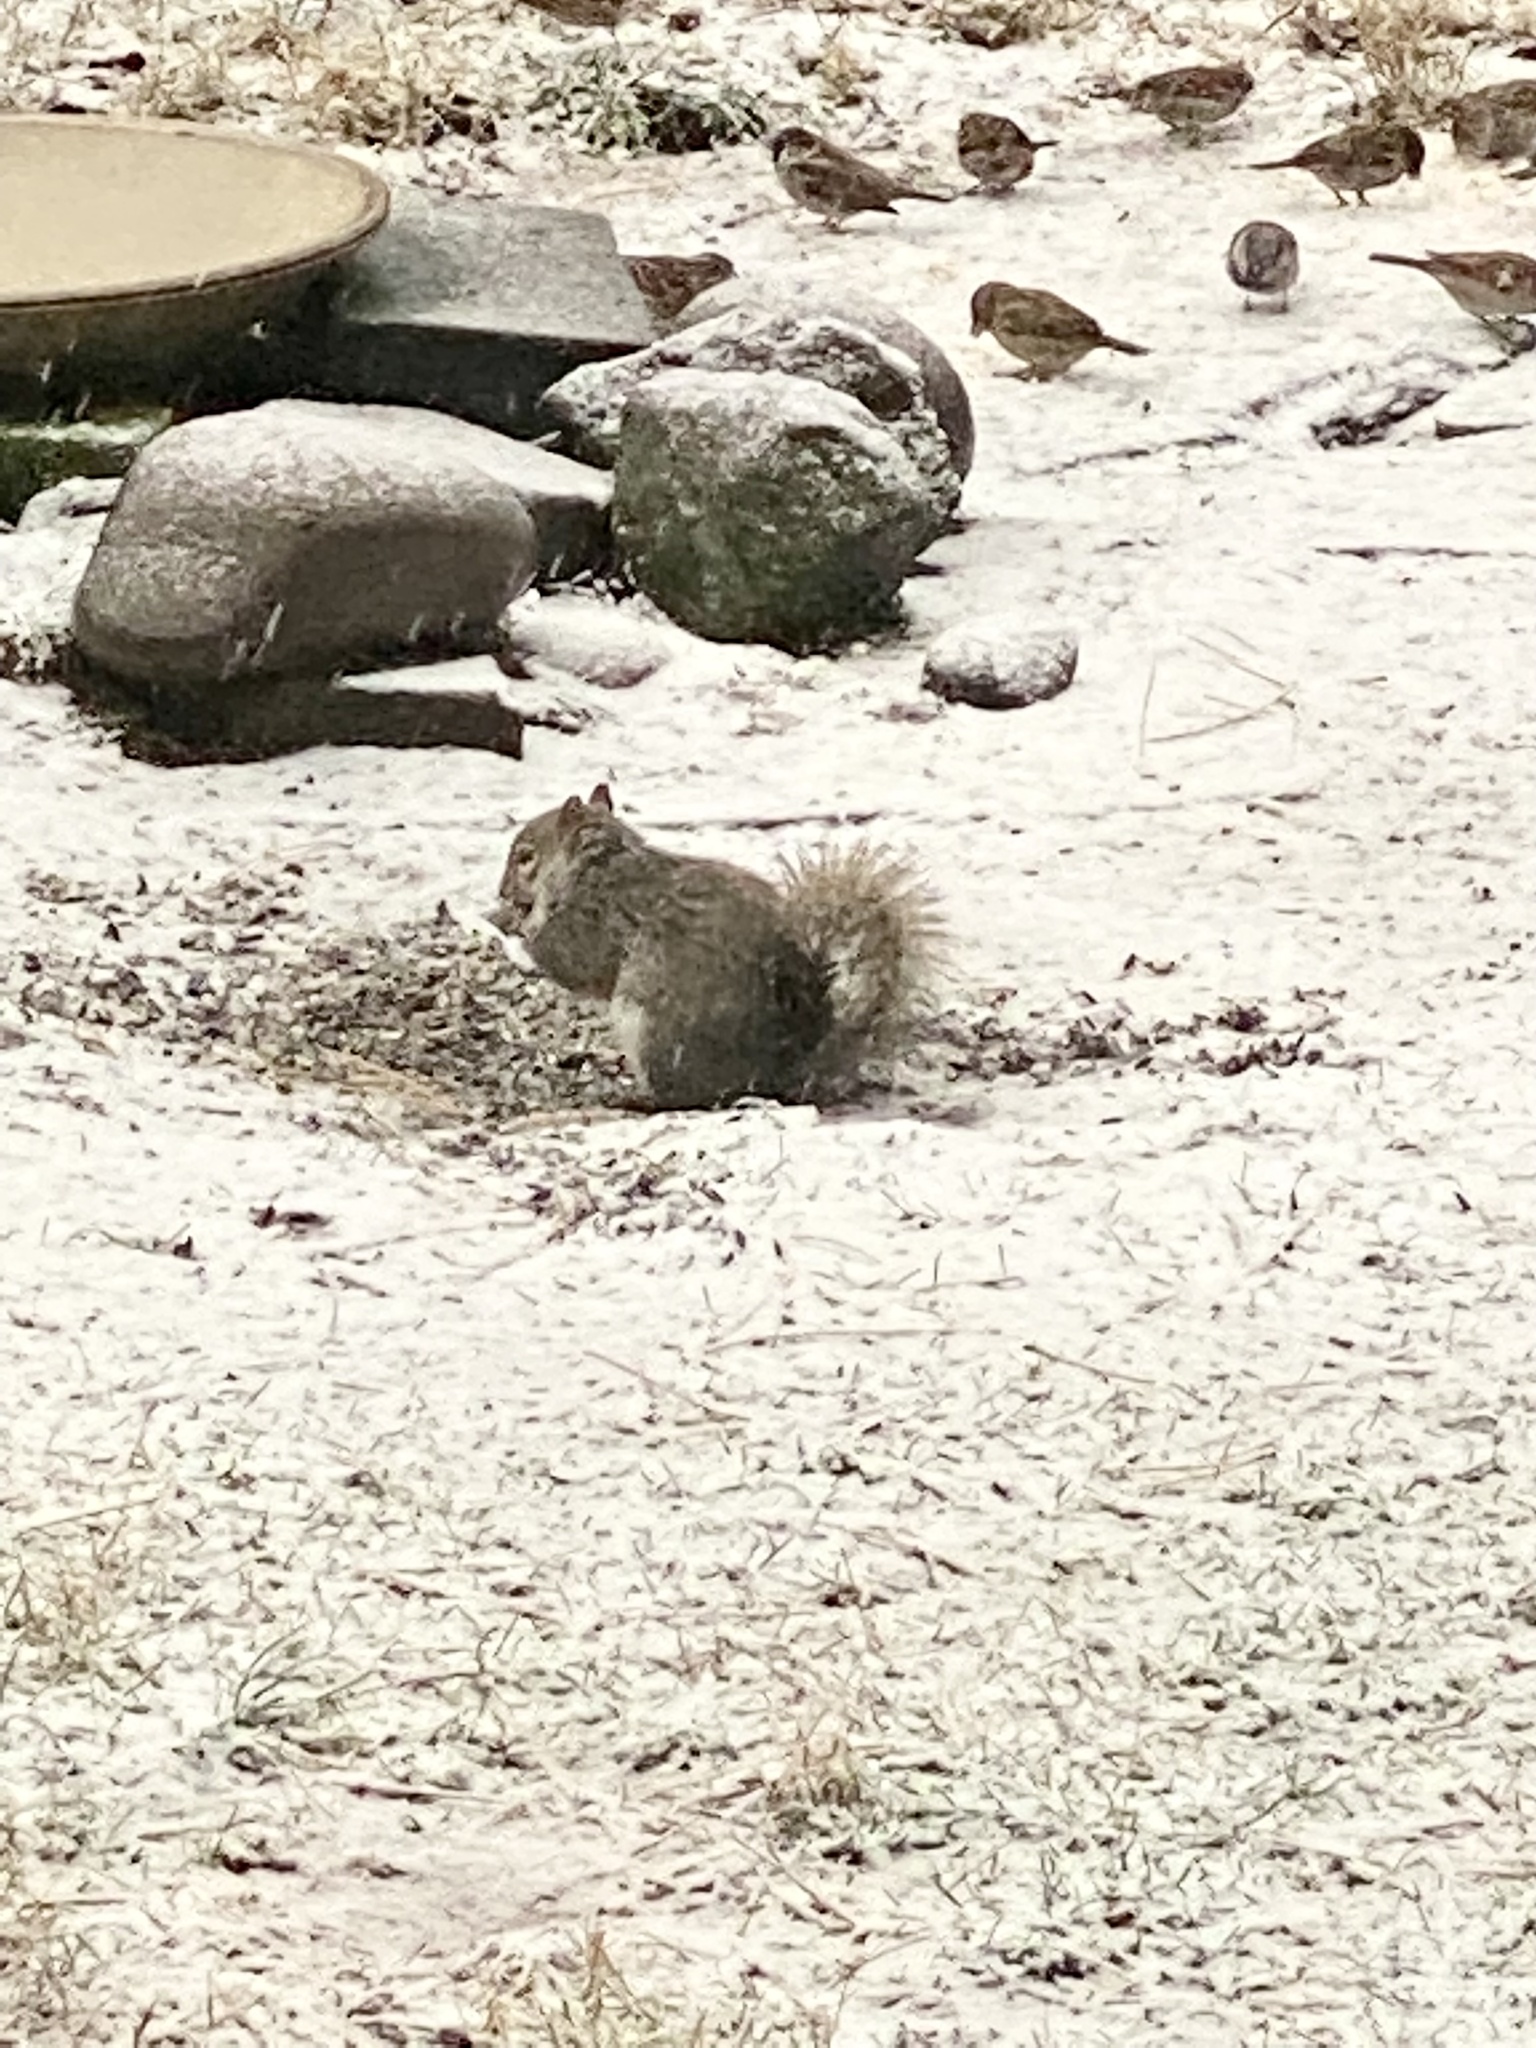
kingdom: Animalia
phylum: Chordata
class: Mammalia
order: Rodentia
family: Sciuridae
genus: Sciurus
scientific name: Sciurus carolinensis
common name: Eastern gray squirrel
